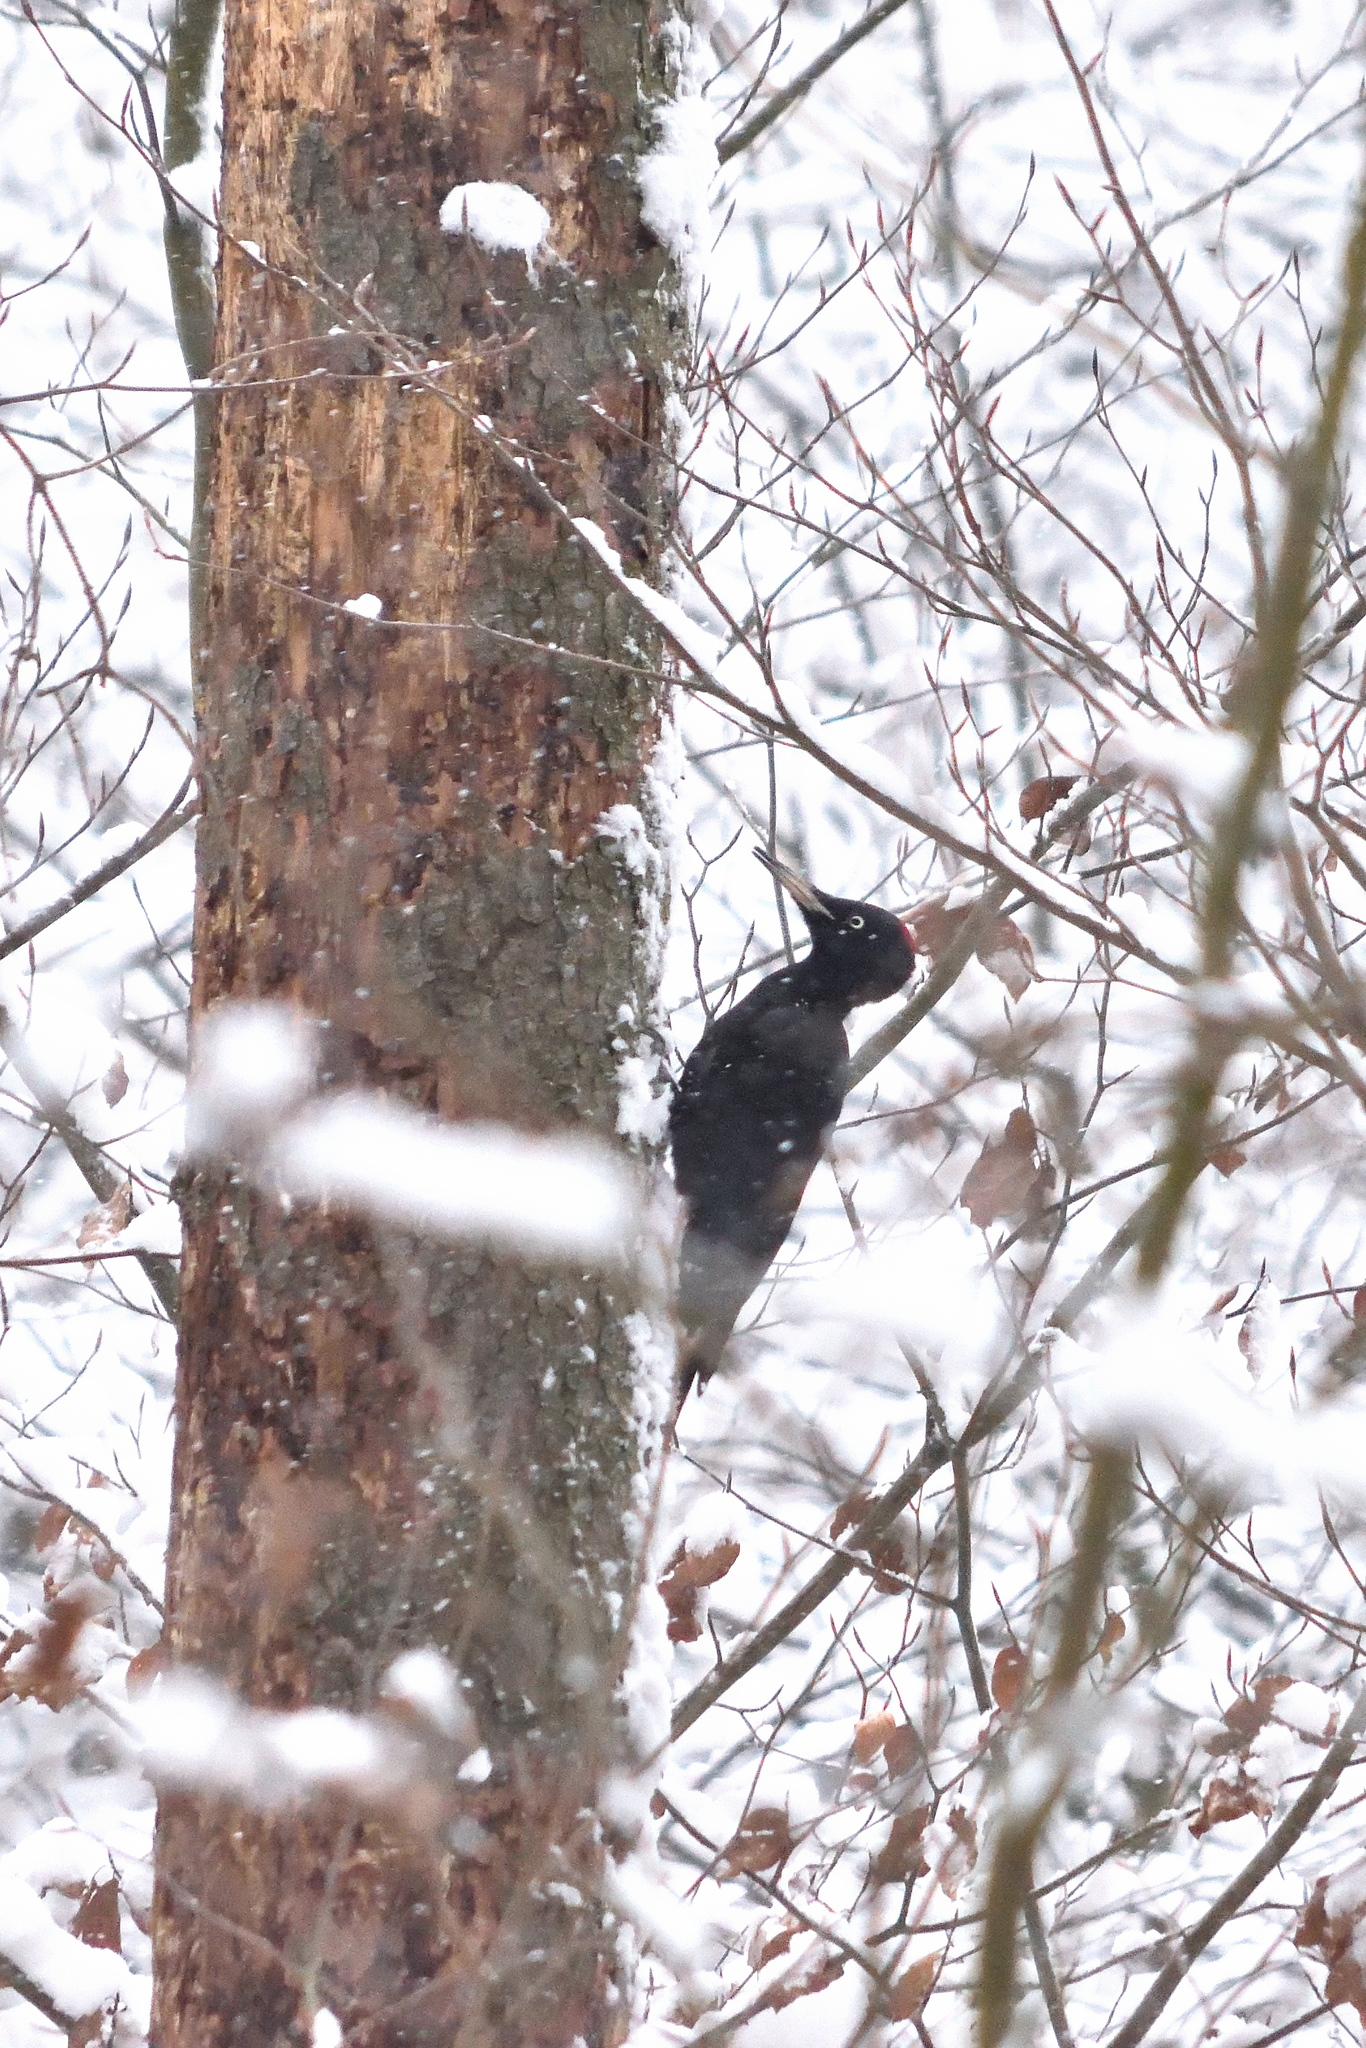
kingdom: Animalia
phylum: Chordata
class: Aves
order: Piciformes
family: Picidae
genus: Dryocopus
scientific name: Dryocopus martius
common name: Black woodpecker
